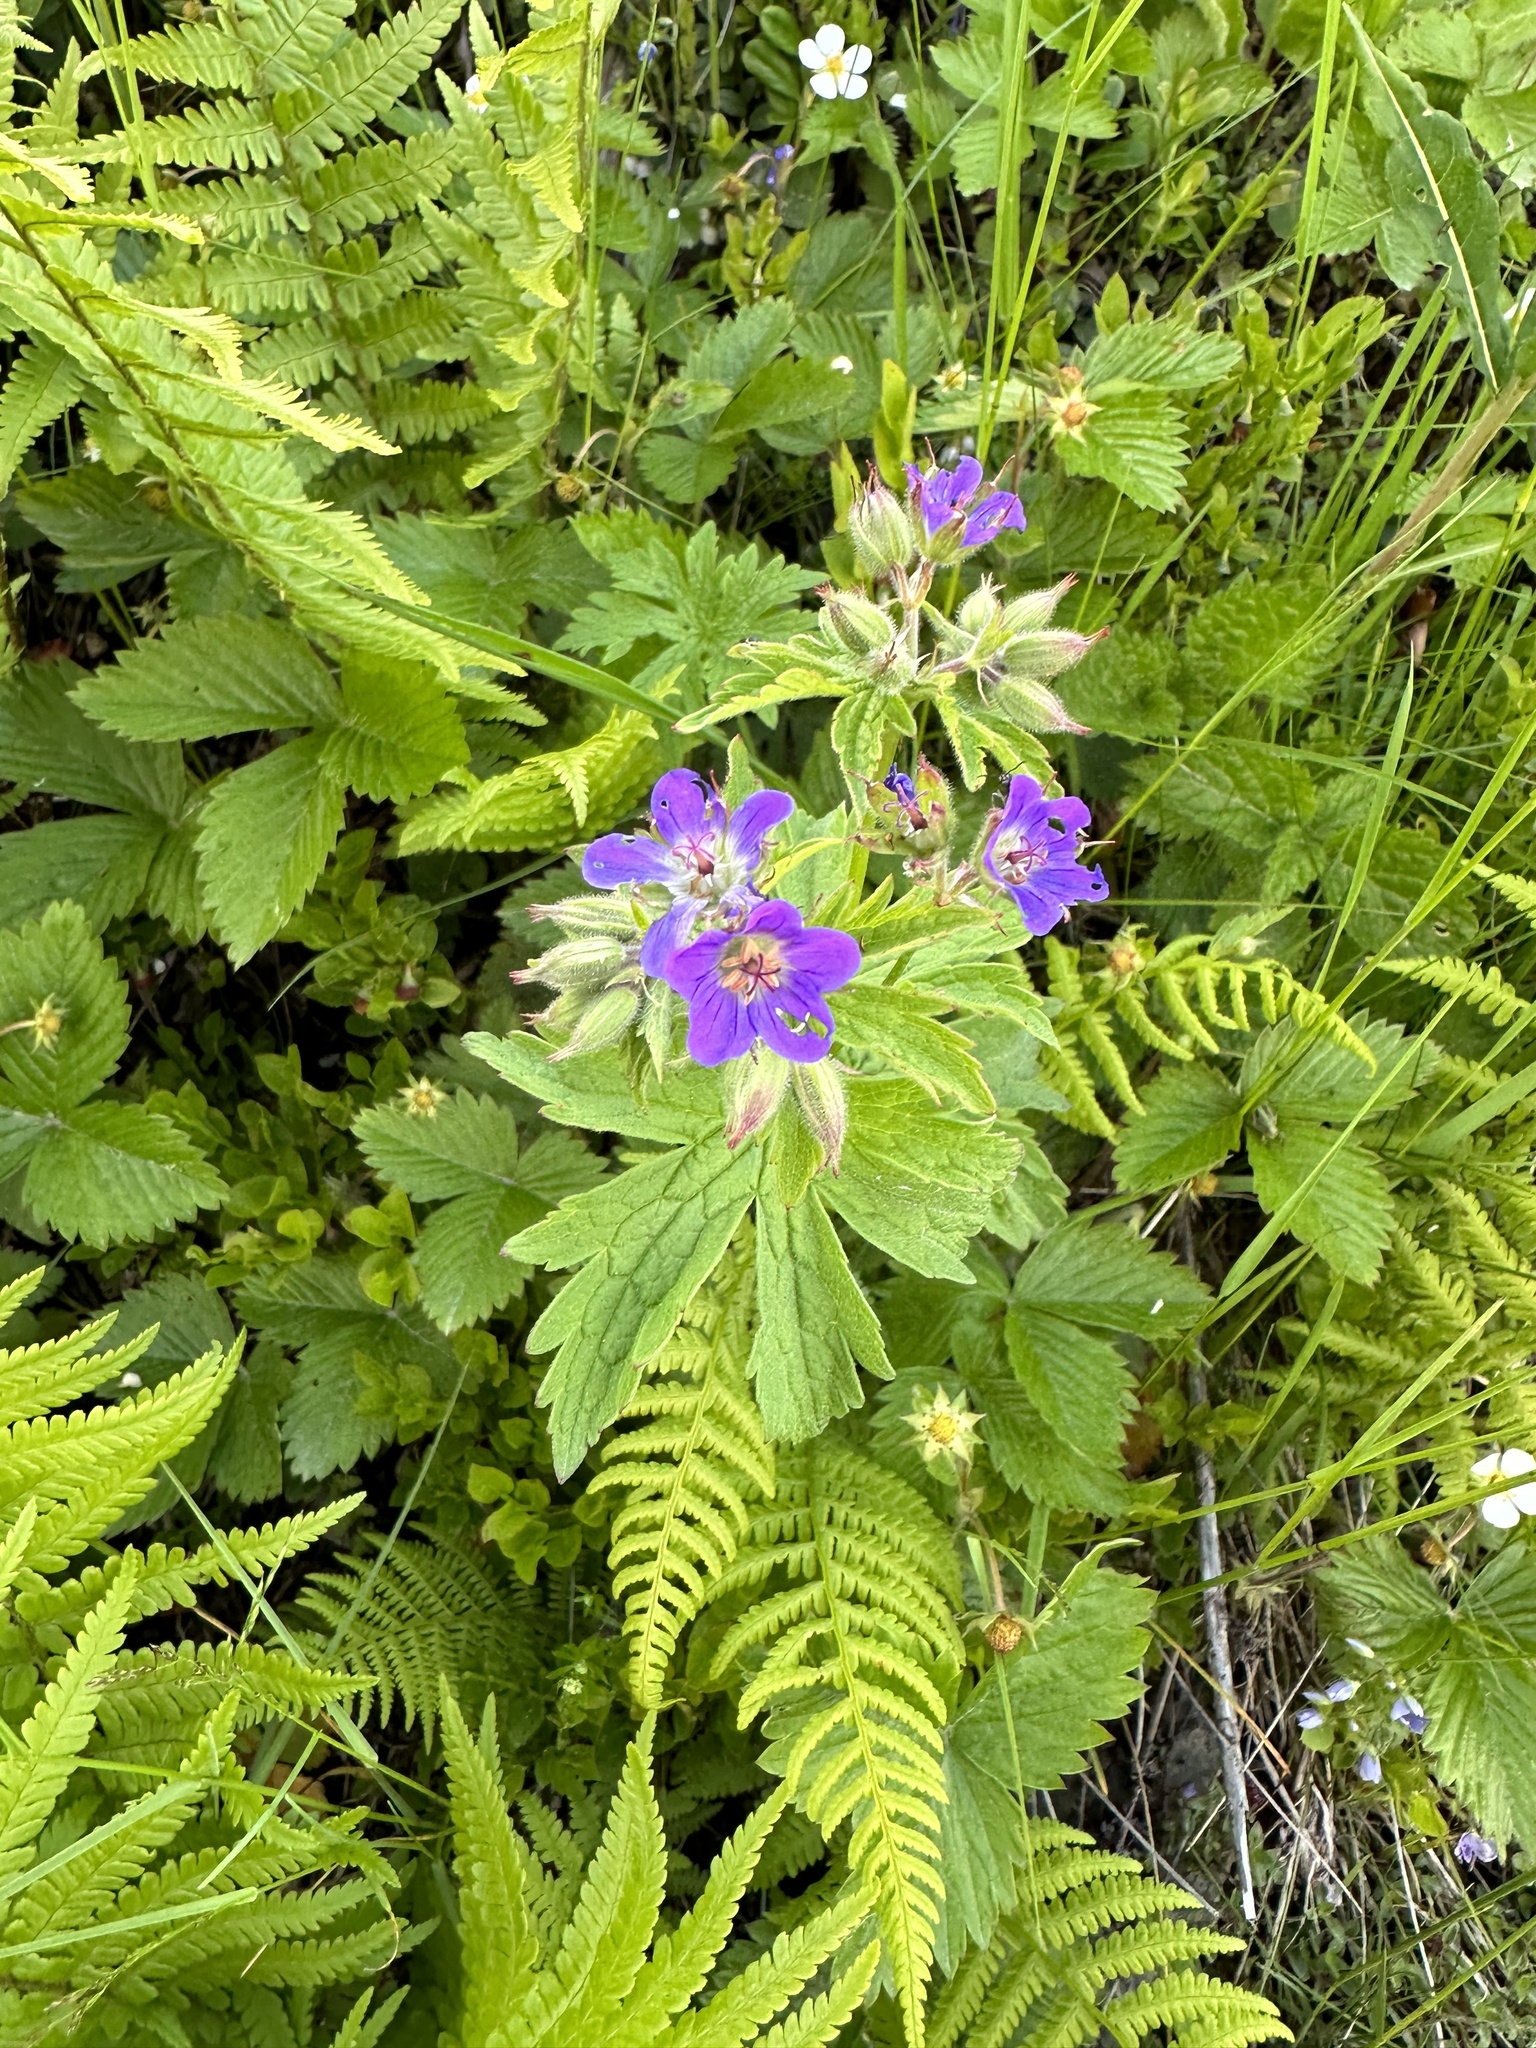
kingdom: Plantae
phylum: Tracheophyta
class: Magnoliopsida
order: Geraniales
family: Geraniaceae
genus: Geranium
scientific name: Geranium sylvaticum
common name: Wood crane's-bill
